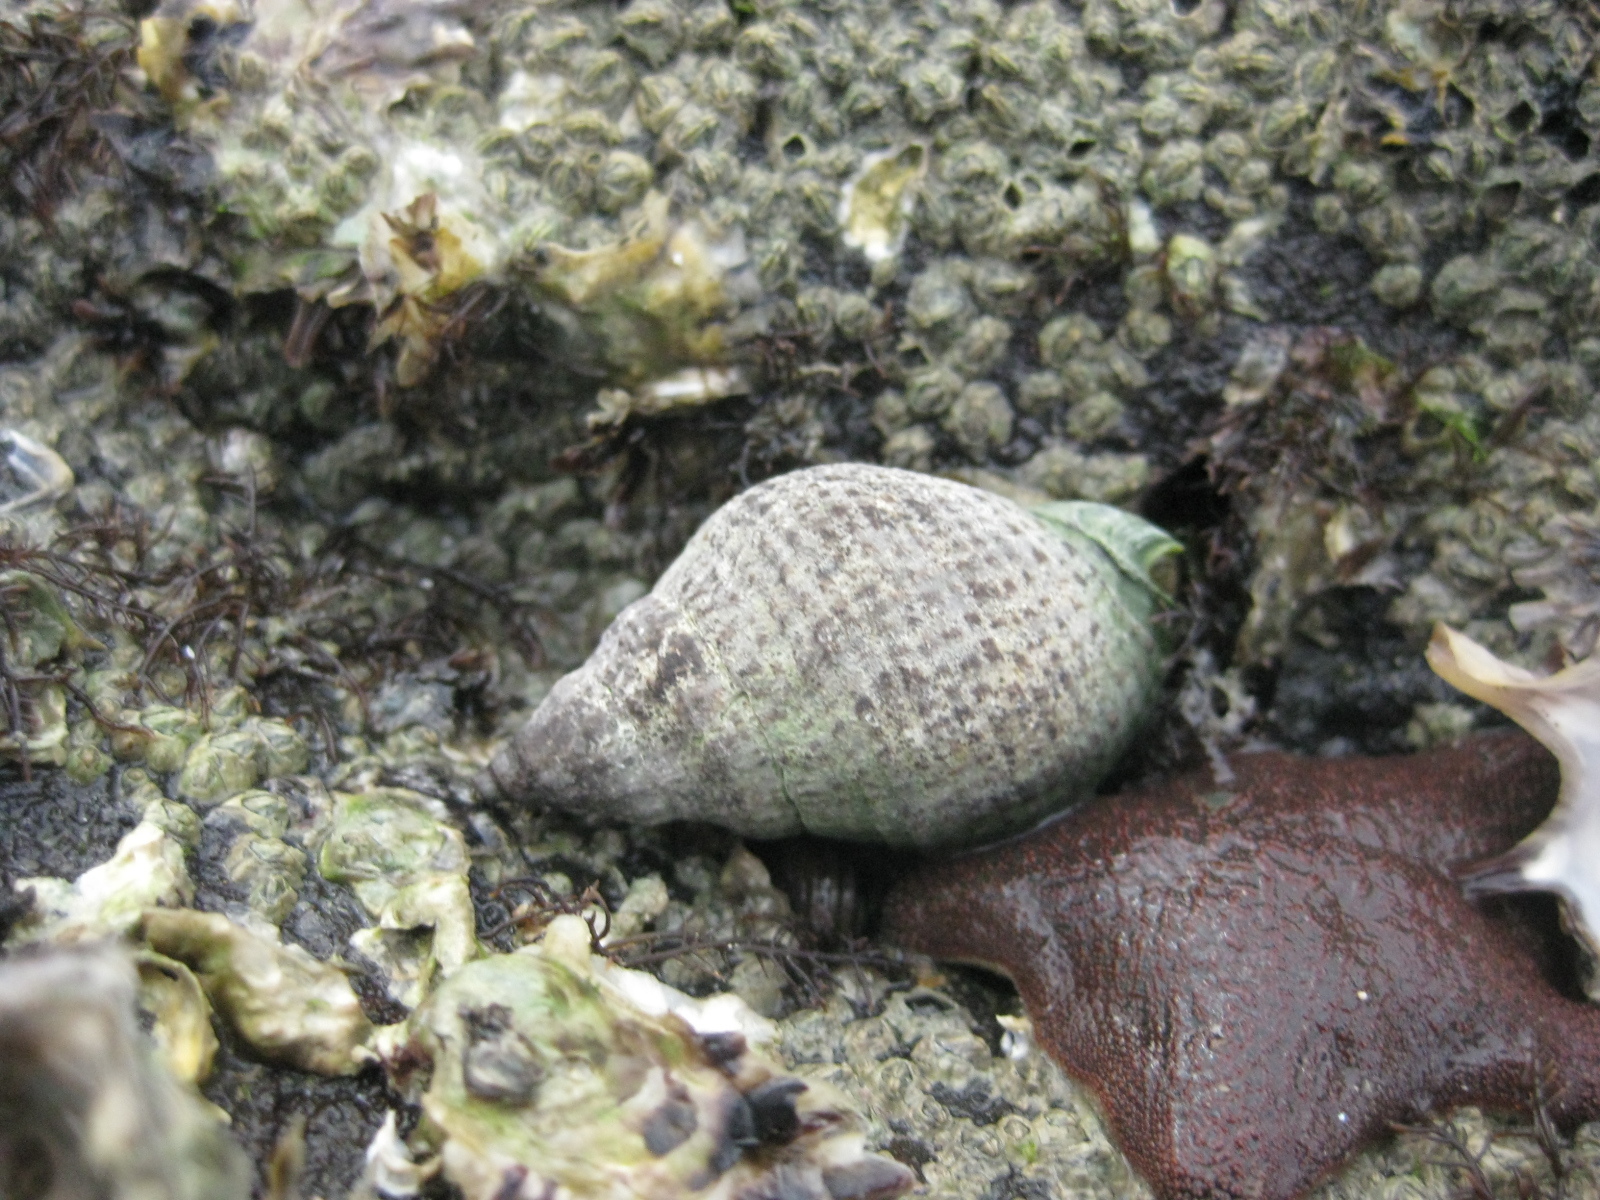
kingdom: Animalia
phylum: Mollusca
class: Gastropoda
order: Neogastropoda
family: Cominellidae
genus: Cominella
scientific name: Cominella adspersa
